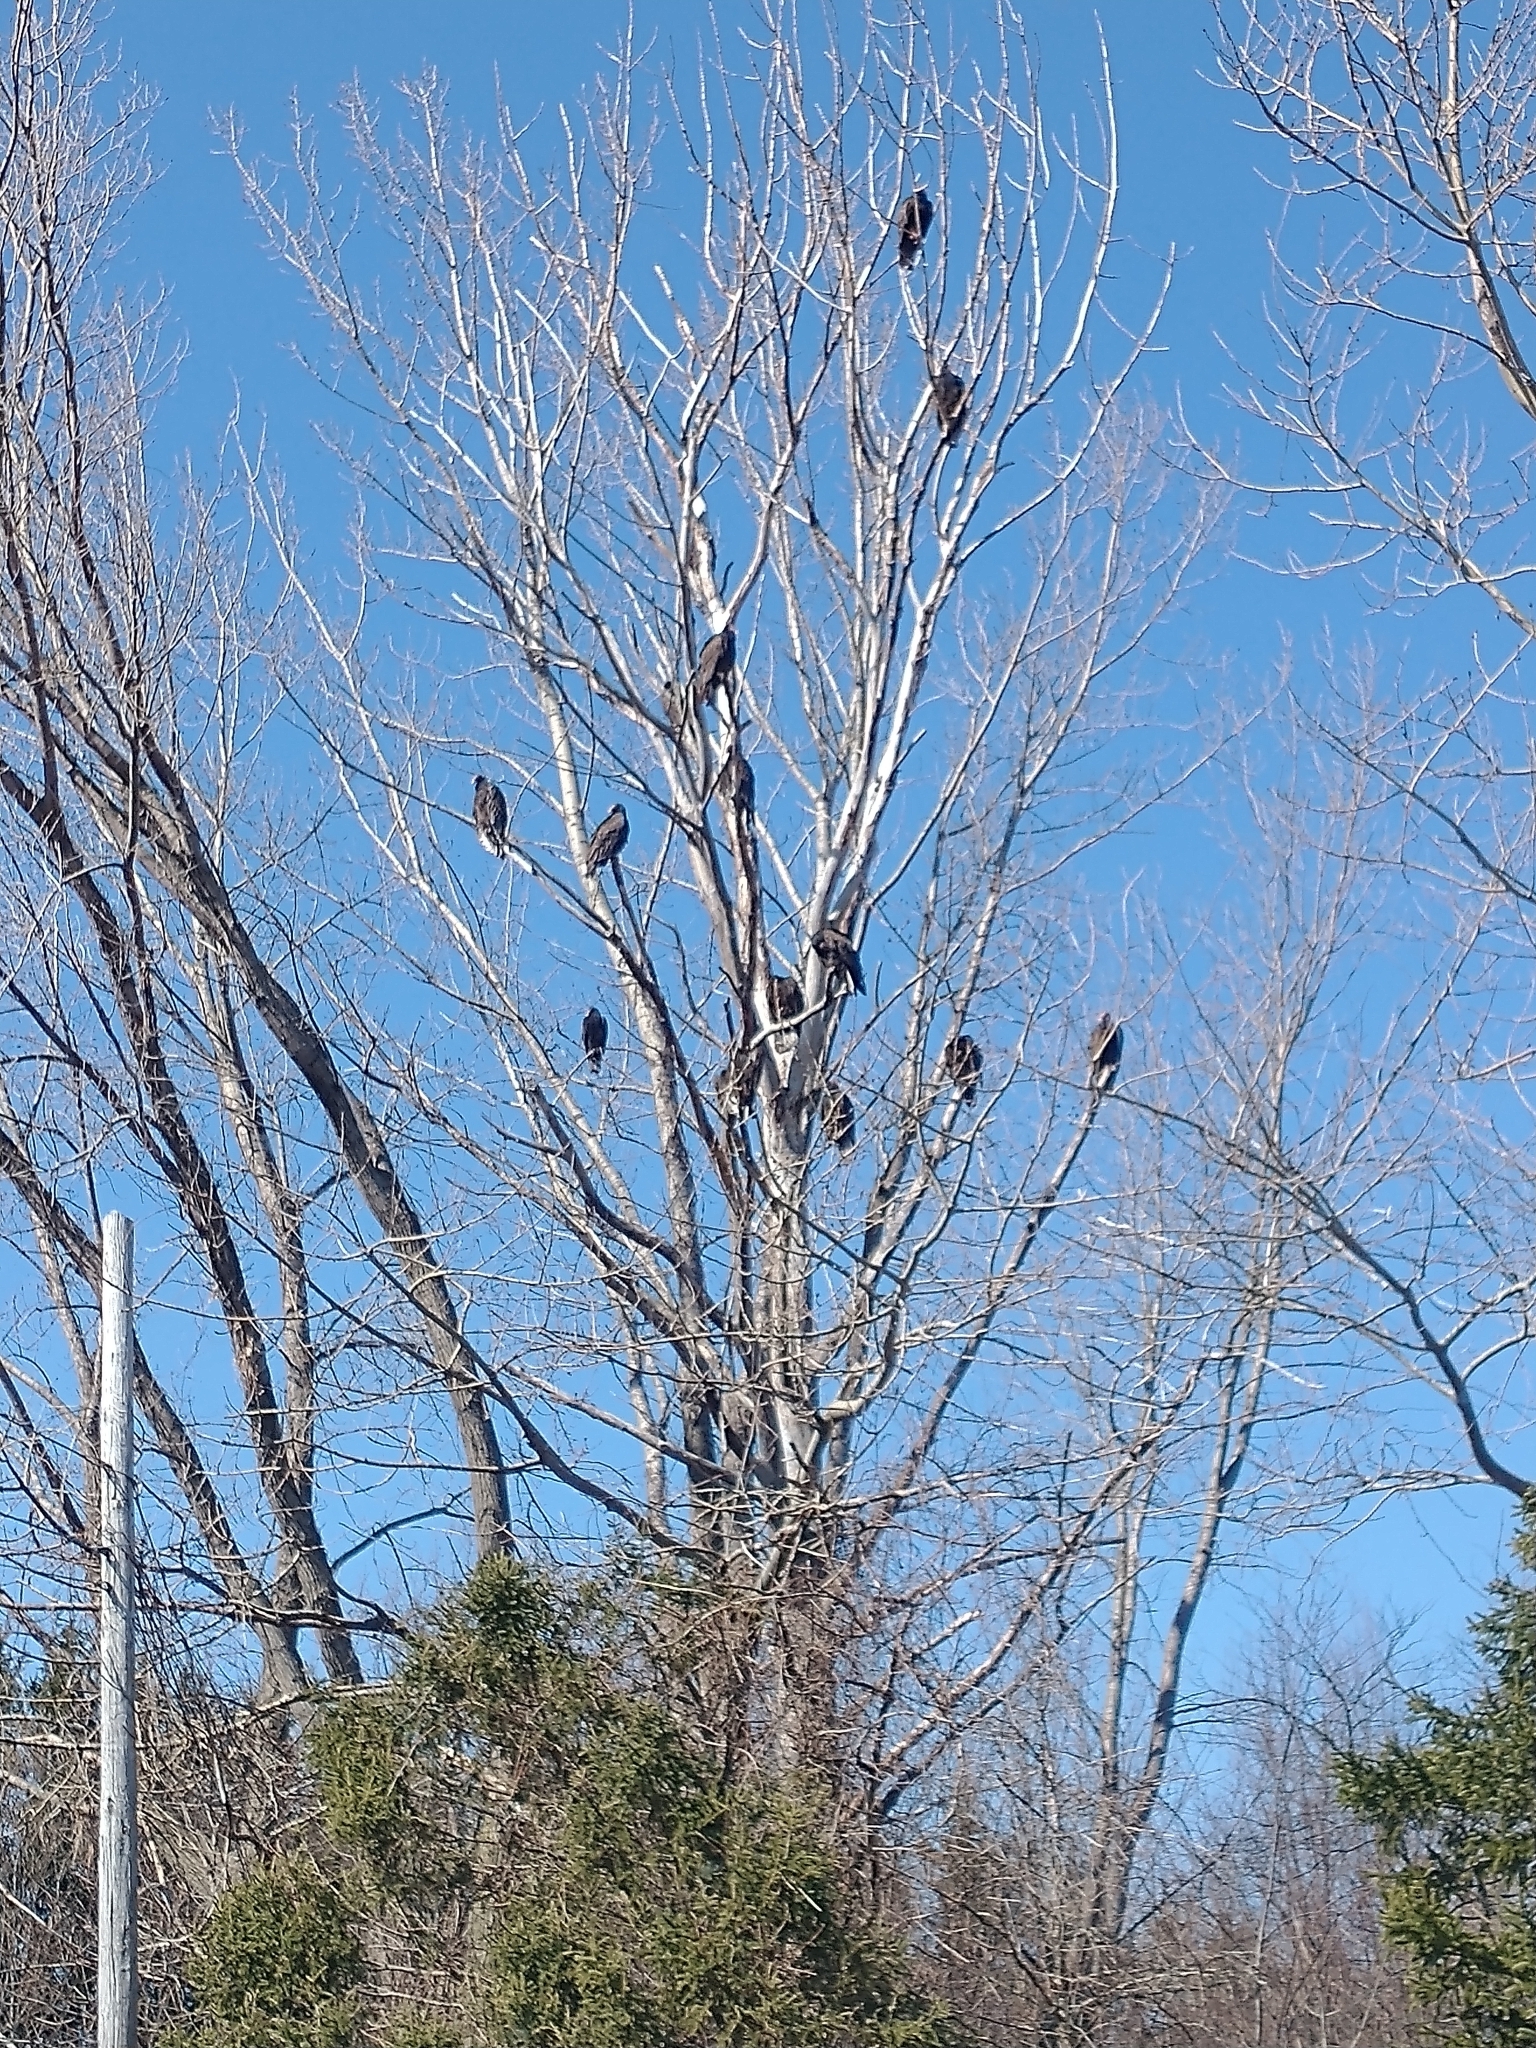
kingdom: Animalia
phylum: Chordata
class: Aves
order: Accipitriformes
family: Cathartidae
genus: Cathartes
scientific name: Cathartes aura
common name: Turkey vulture
